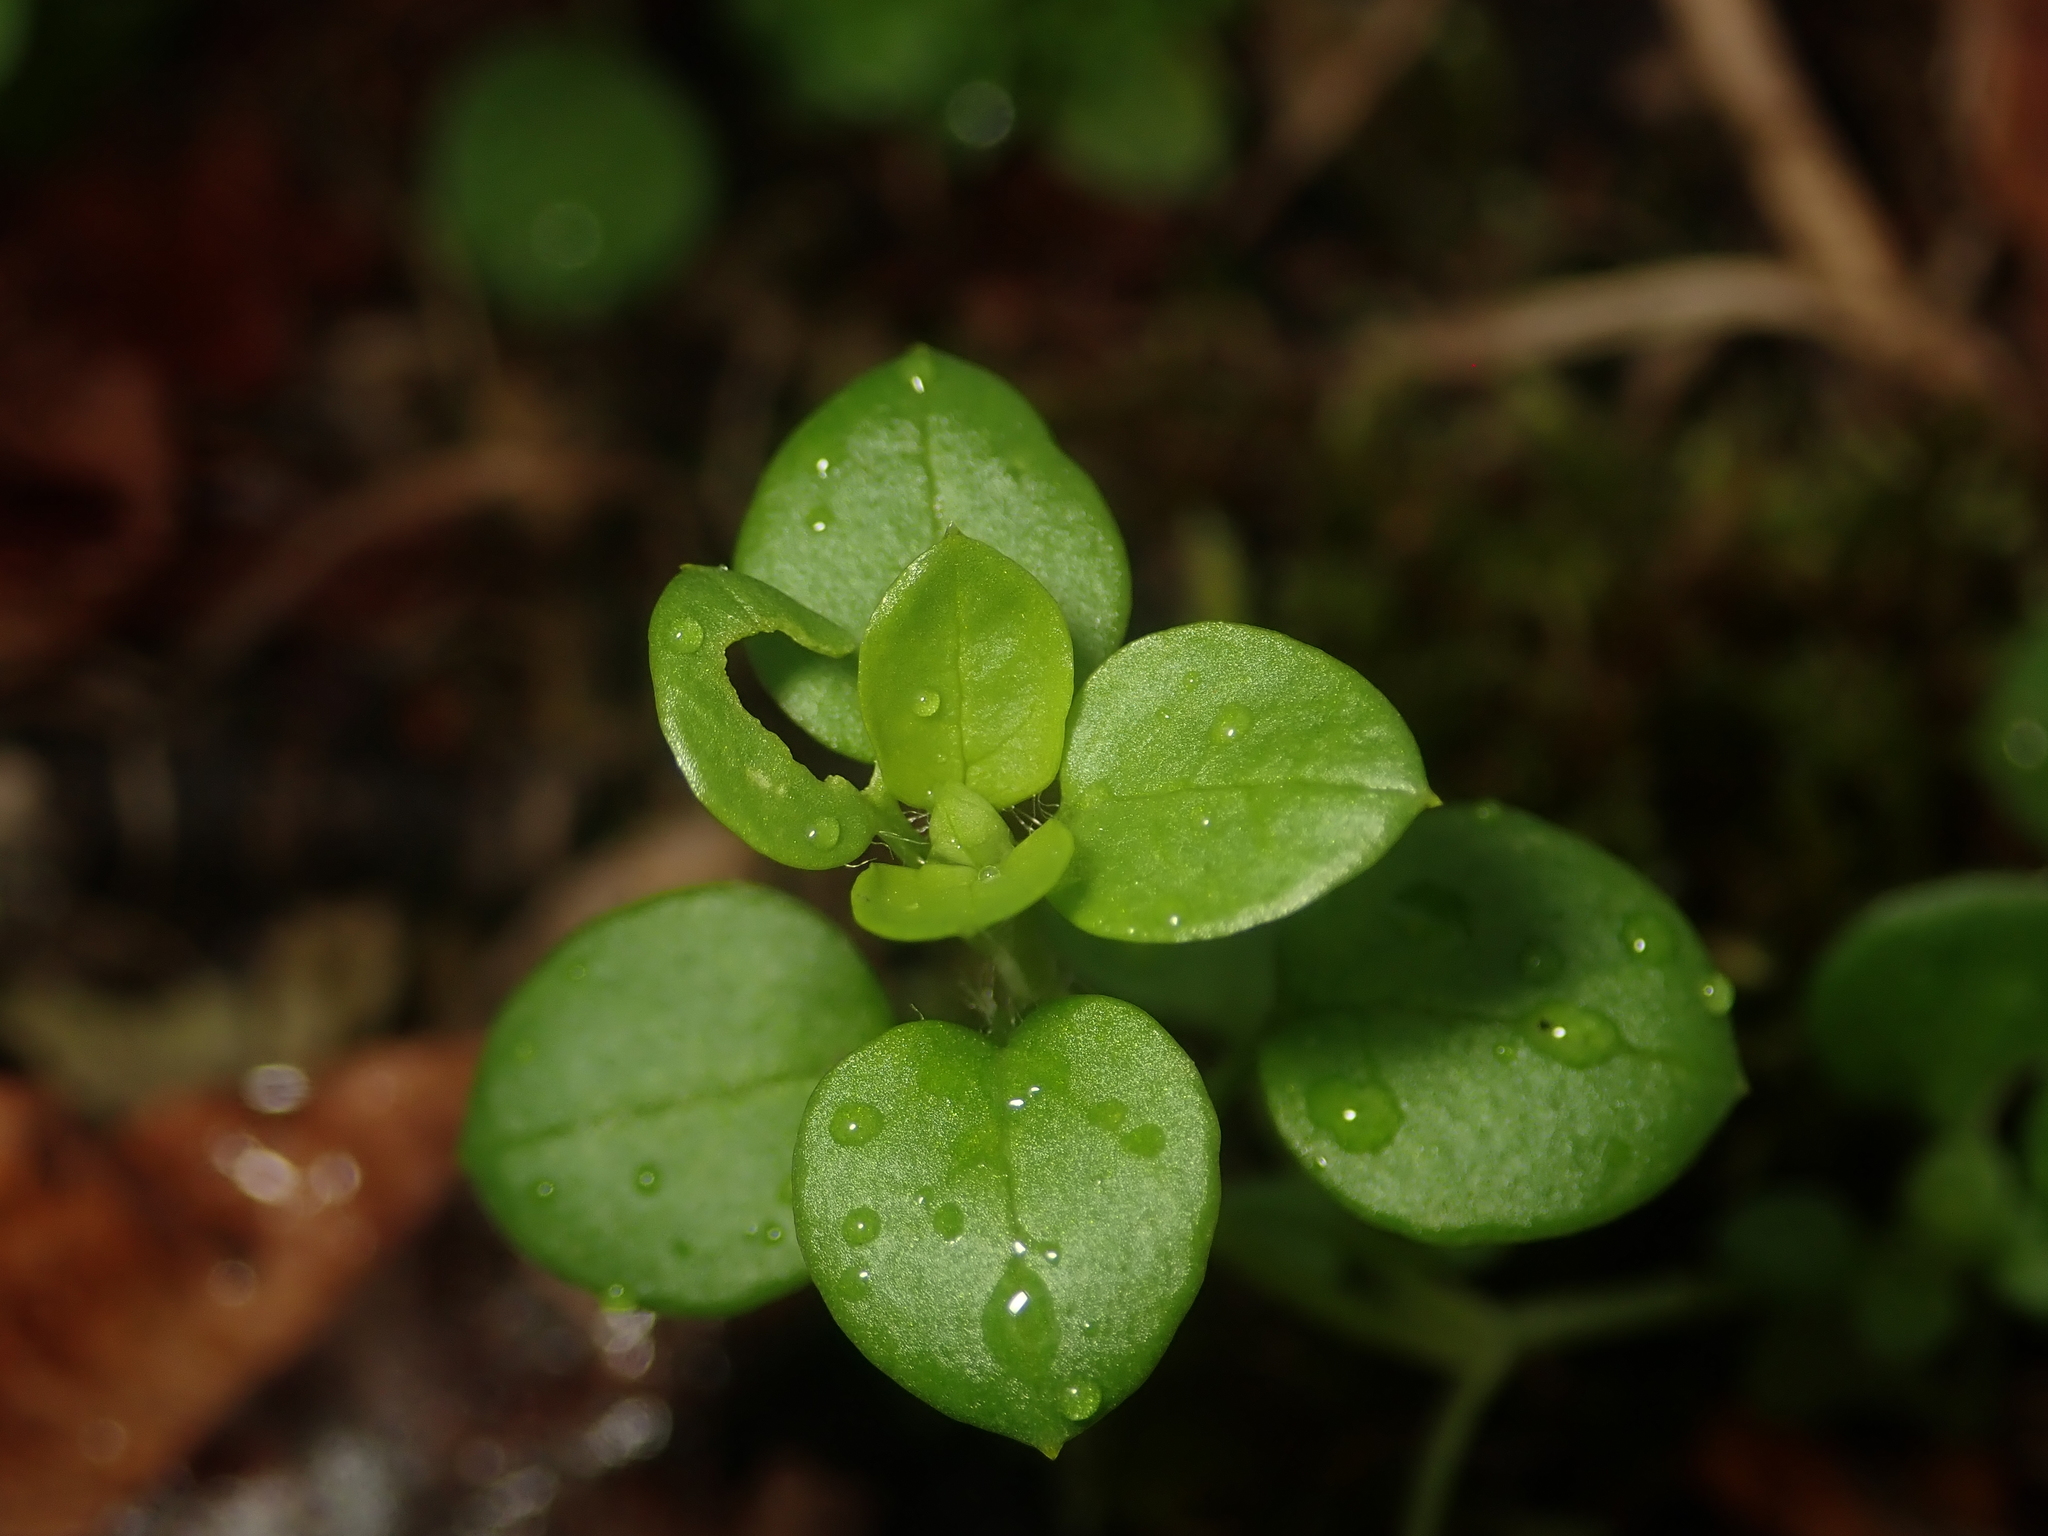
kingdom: Plantae
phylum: Tracheophyta
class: Magnoliopsida
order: Caryophyllales
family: Caryophyllaceae
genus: Stellaria
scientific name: Stellaria media
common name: Common chickweed
